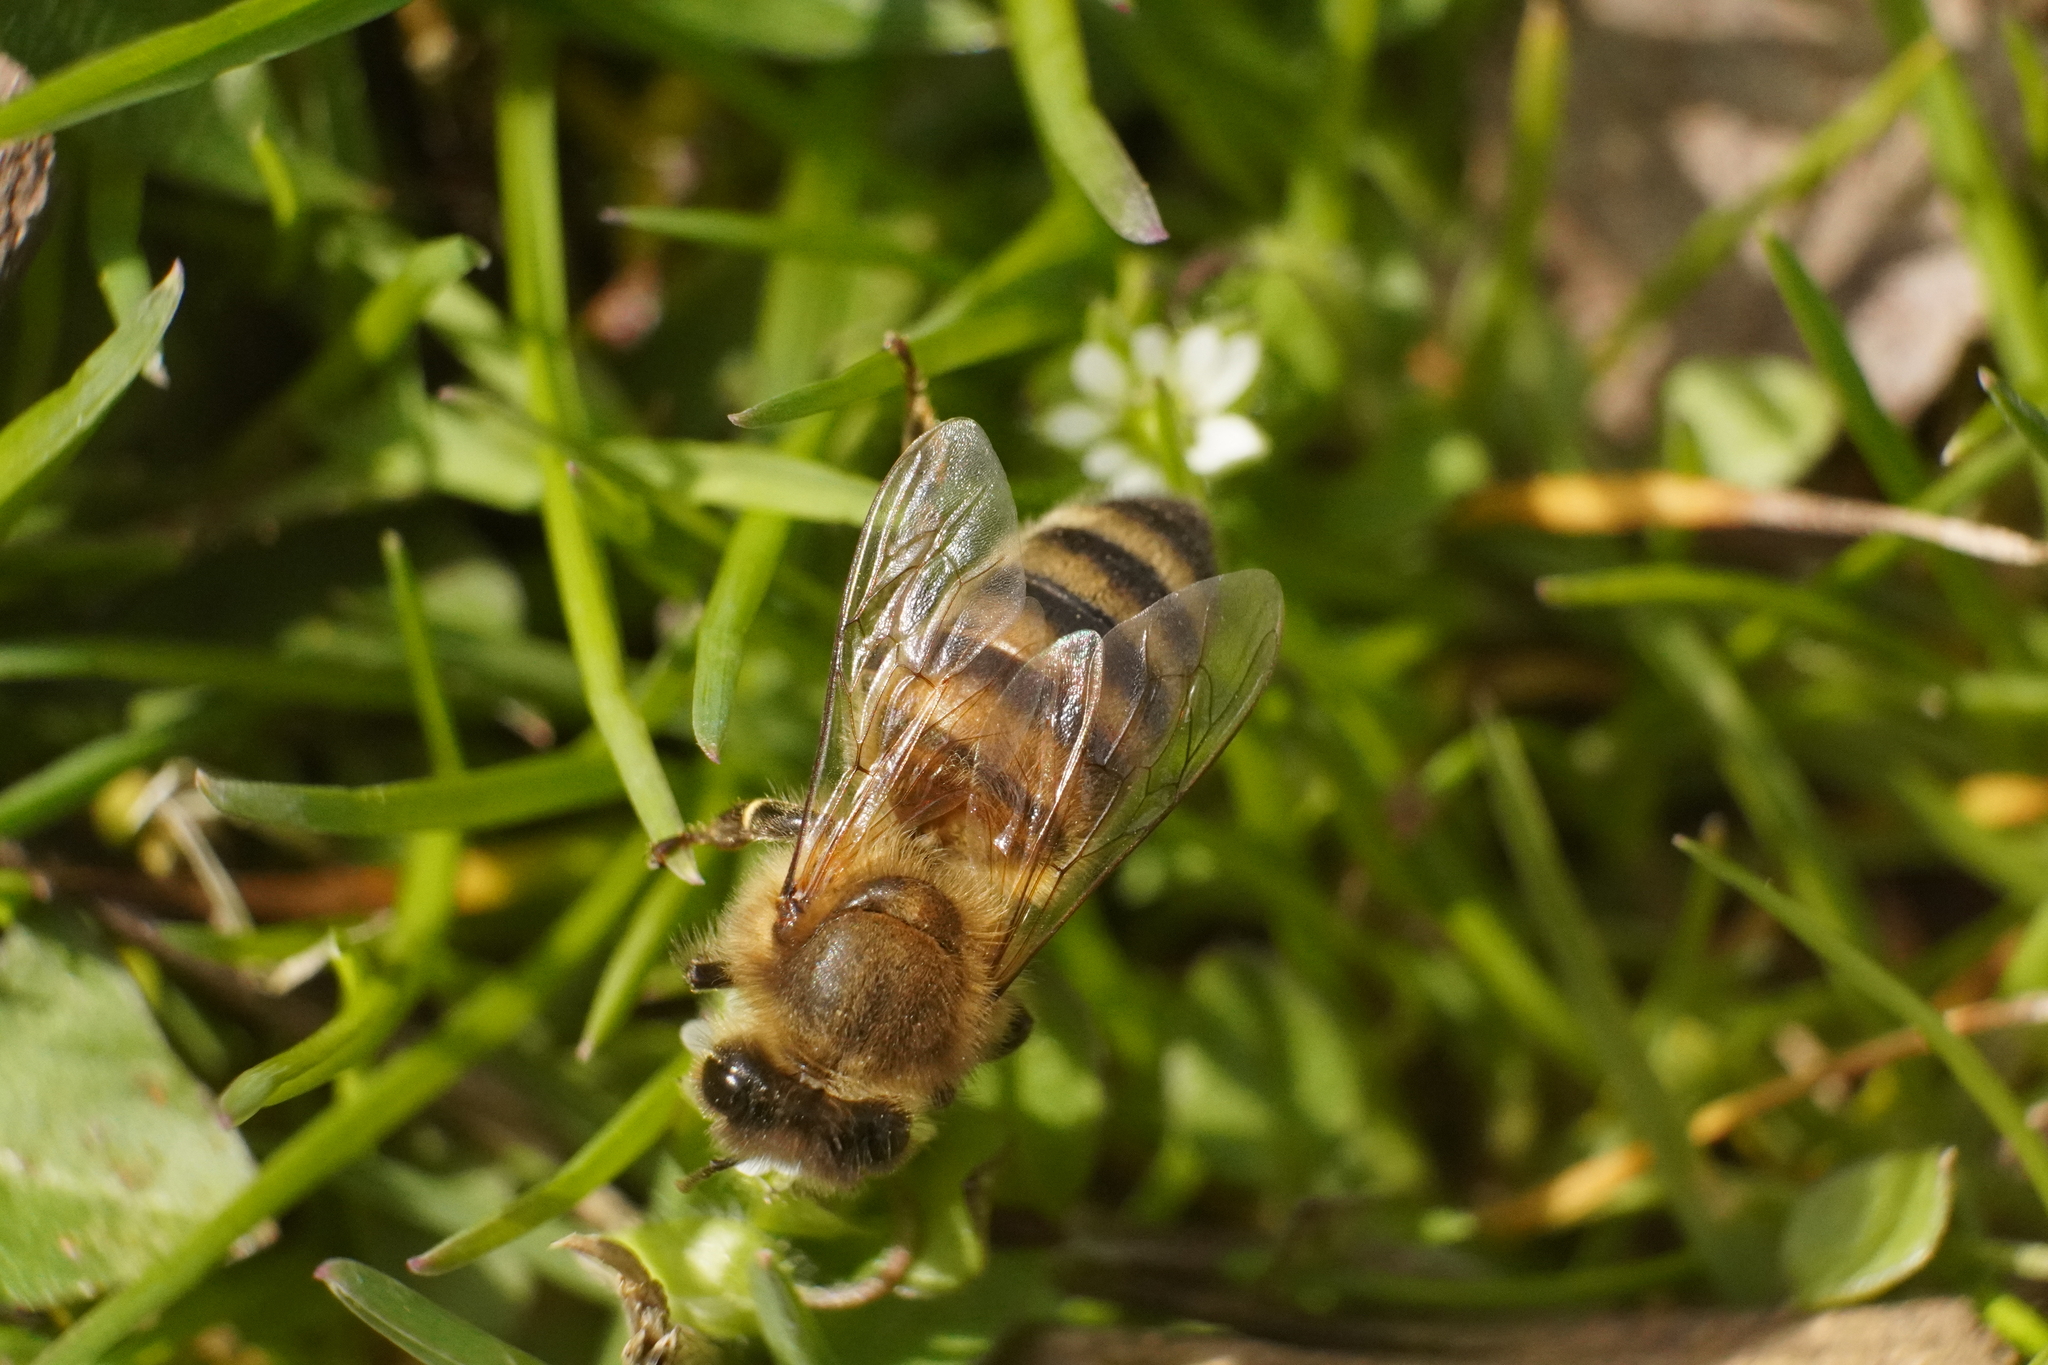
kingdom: Animalia
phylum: Arthropoda
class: Insecta
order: Hymenoptera
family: Apidae
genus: Apis
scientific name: Apis mellifera
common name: Honey bee
